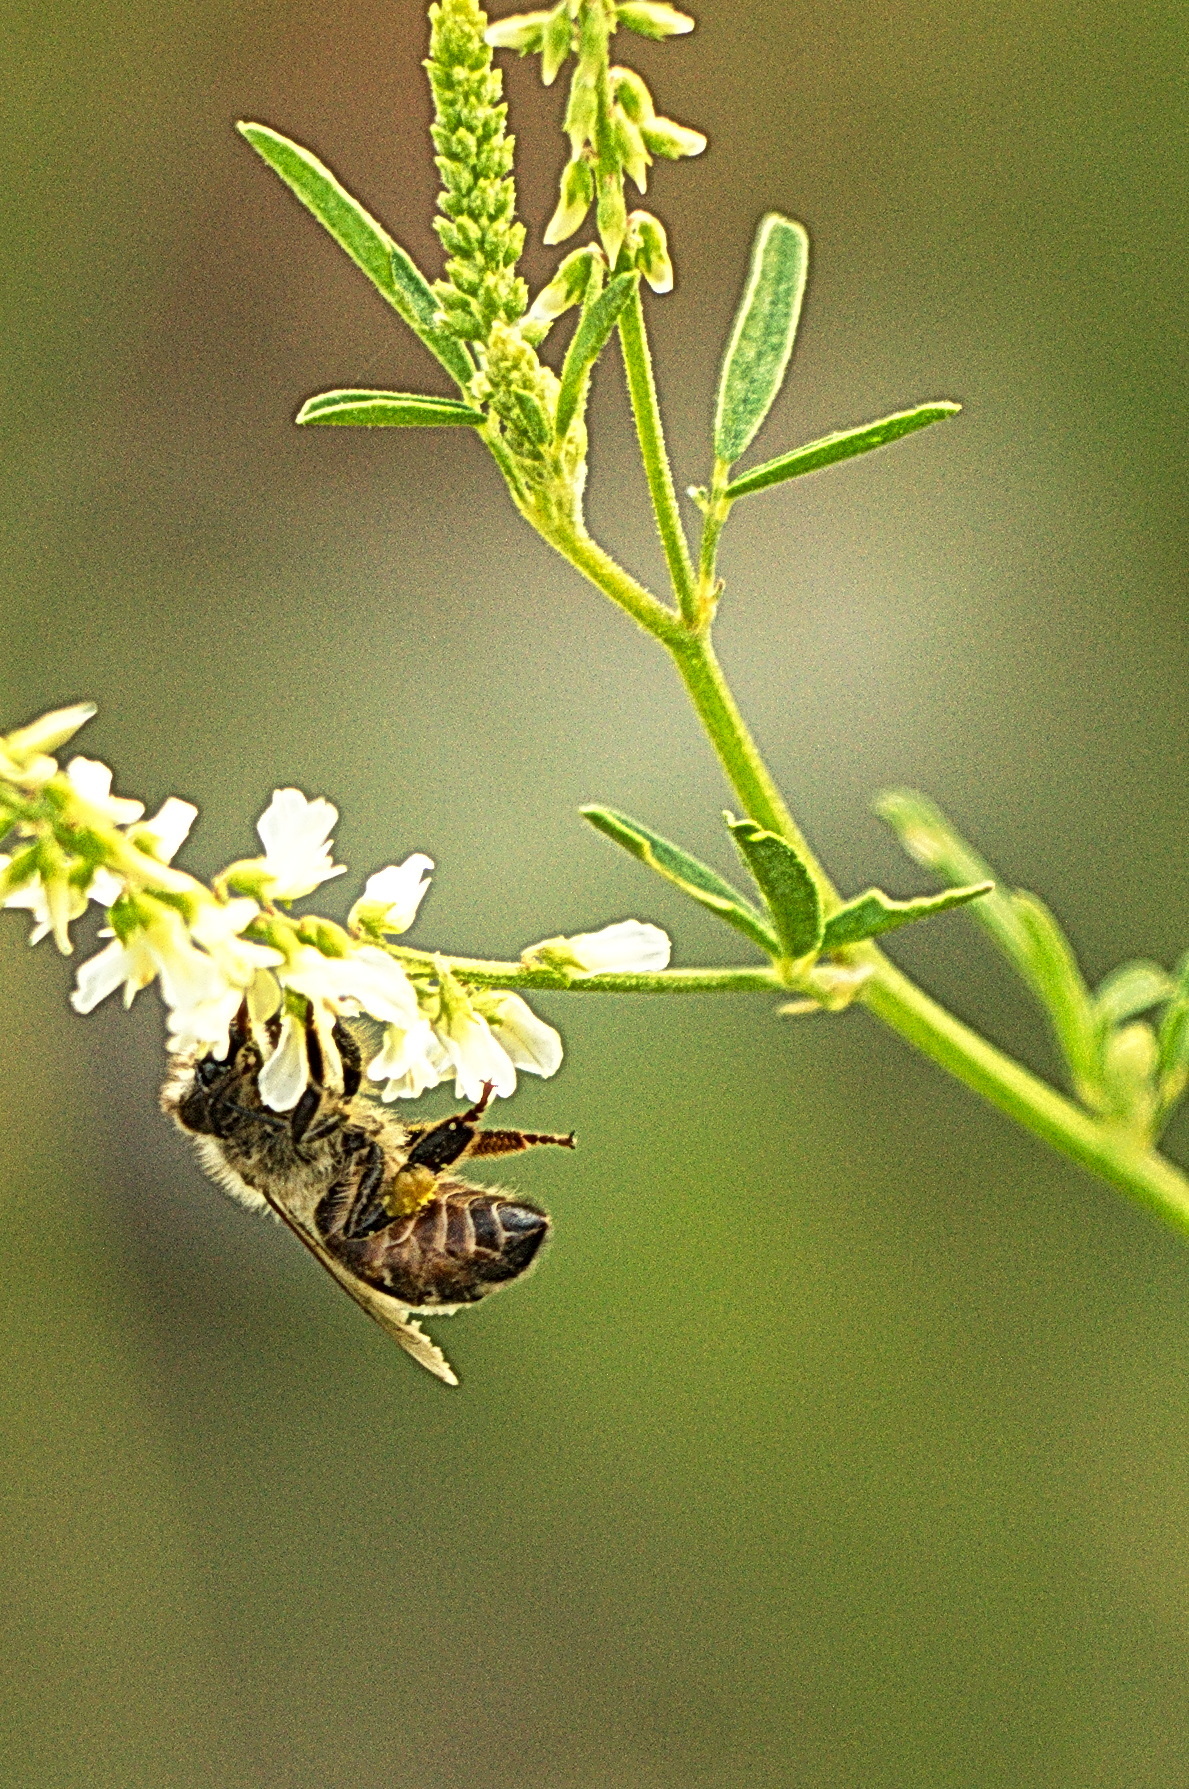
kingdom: Animalia
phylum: Arthropoda
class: Insecta
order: Hymenoptera
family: Apidae
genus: Apis
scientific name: Apis mellifera
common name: Honey bee
